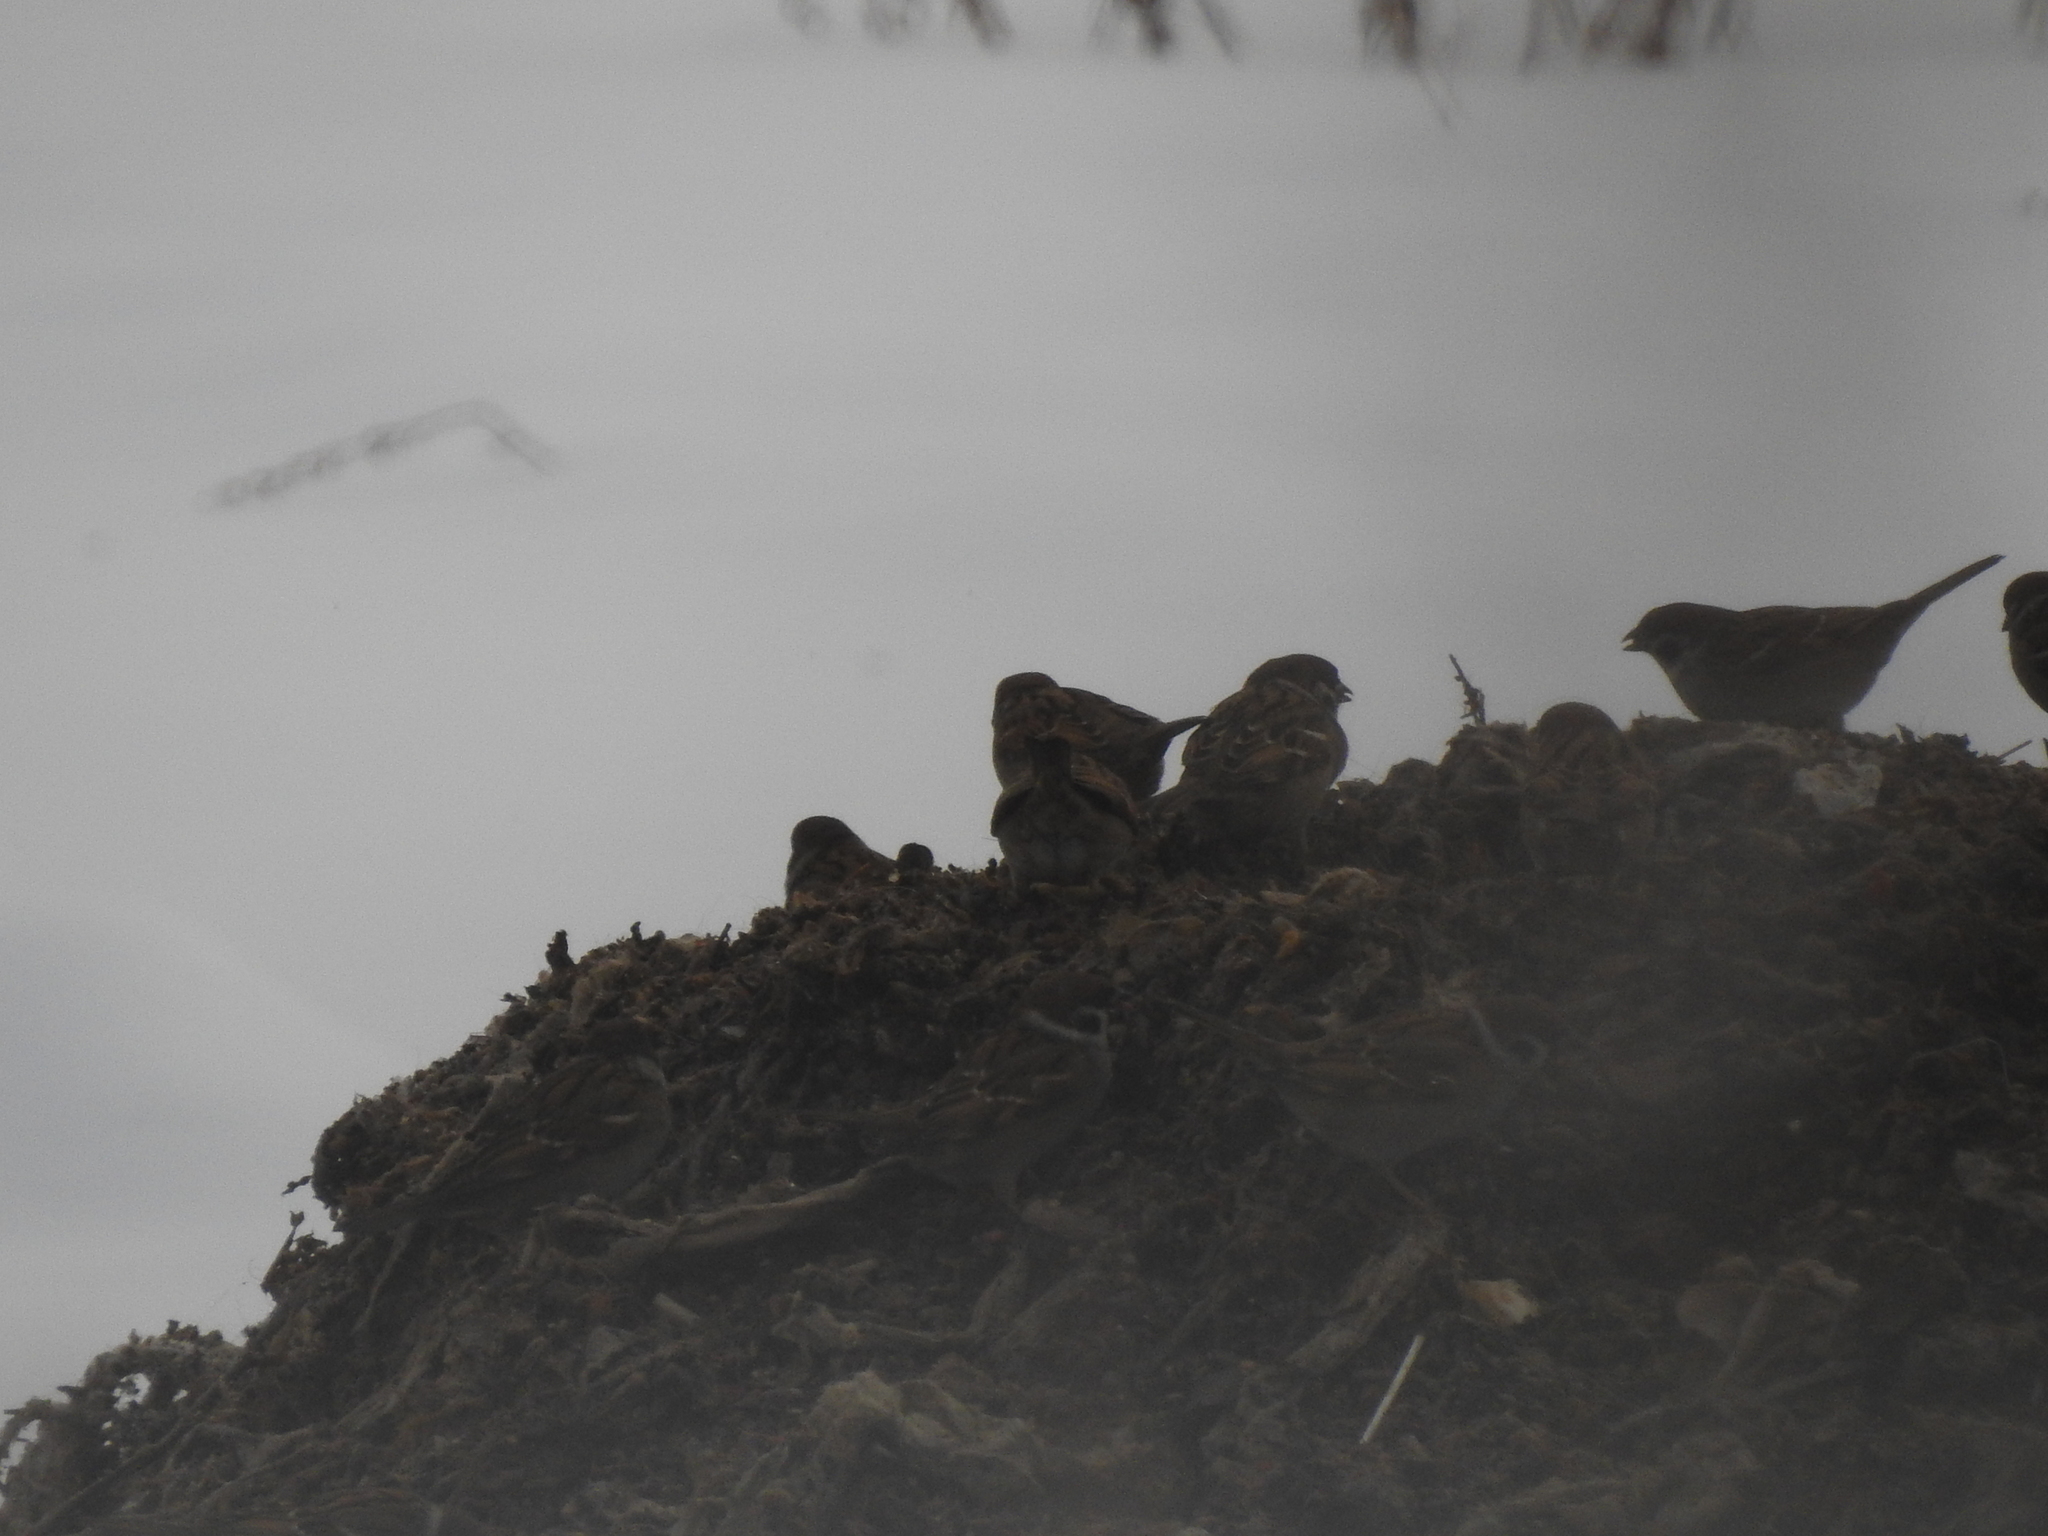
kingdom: Animalia
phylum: Chordata
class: Aves
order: Passeriformes
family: Passeridae
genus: Passer
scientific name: Passer montanus
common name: Eurasian tree sparrow
